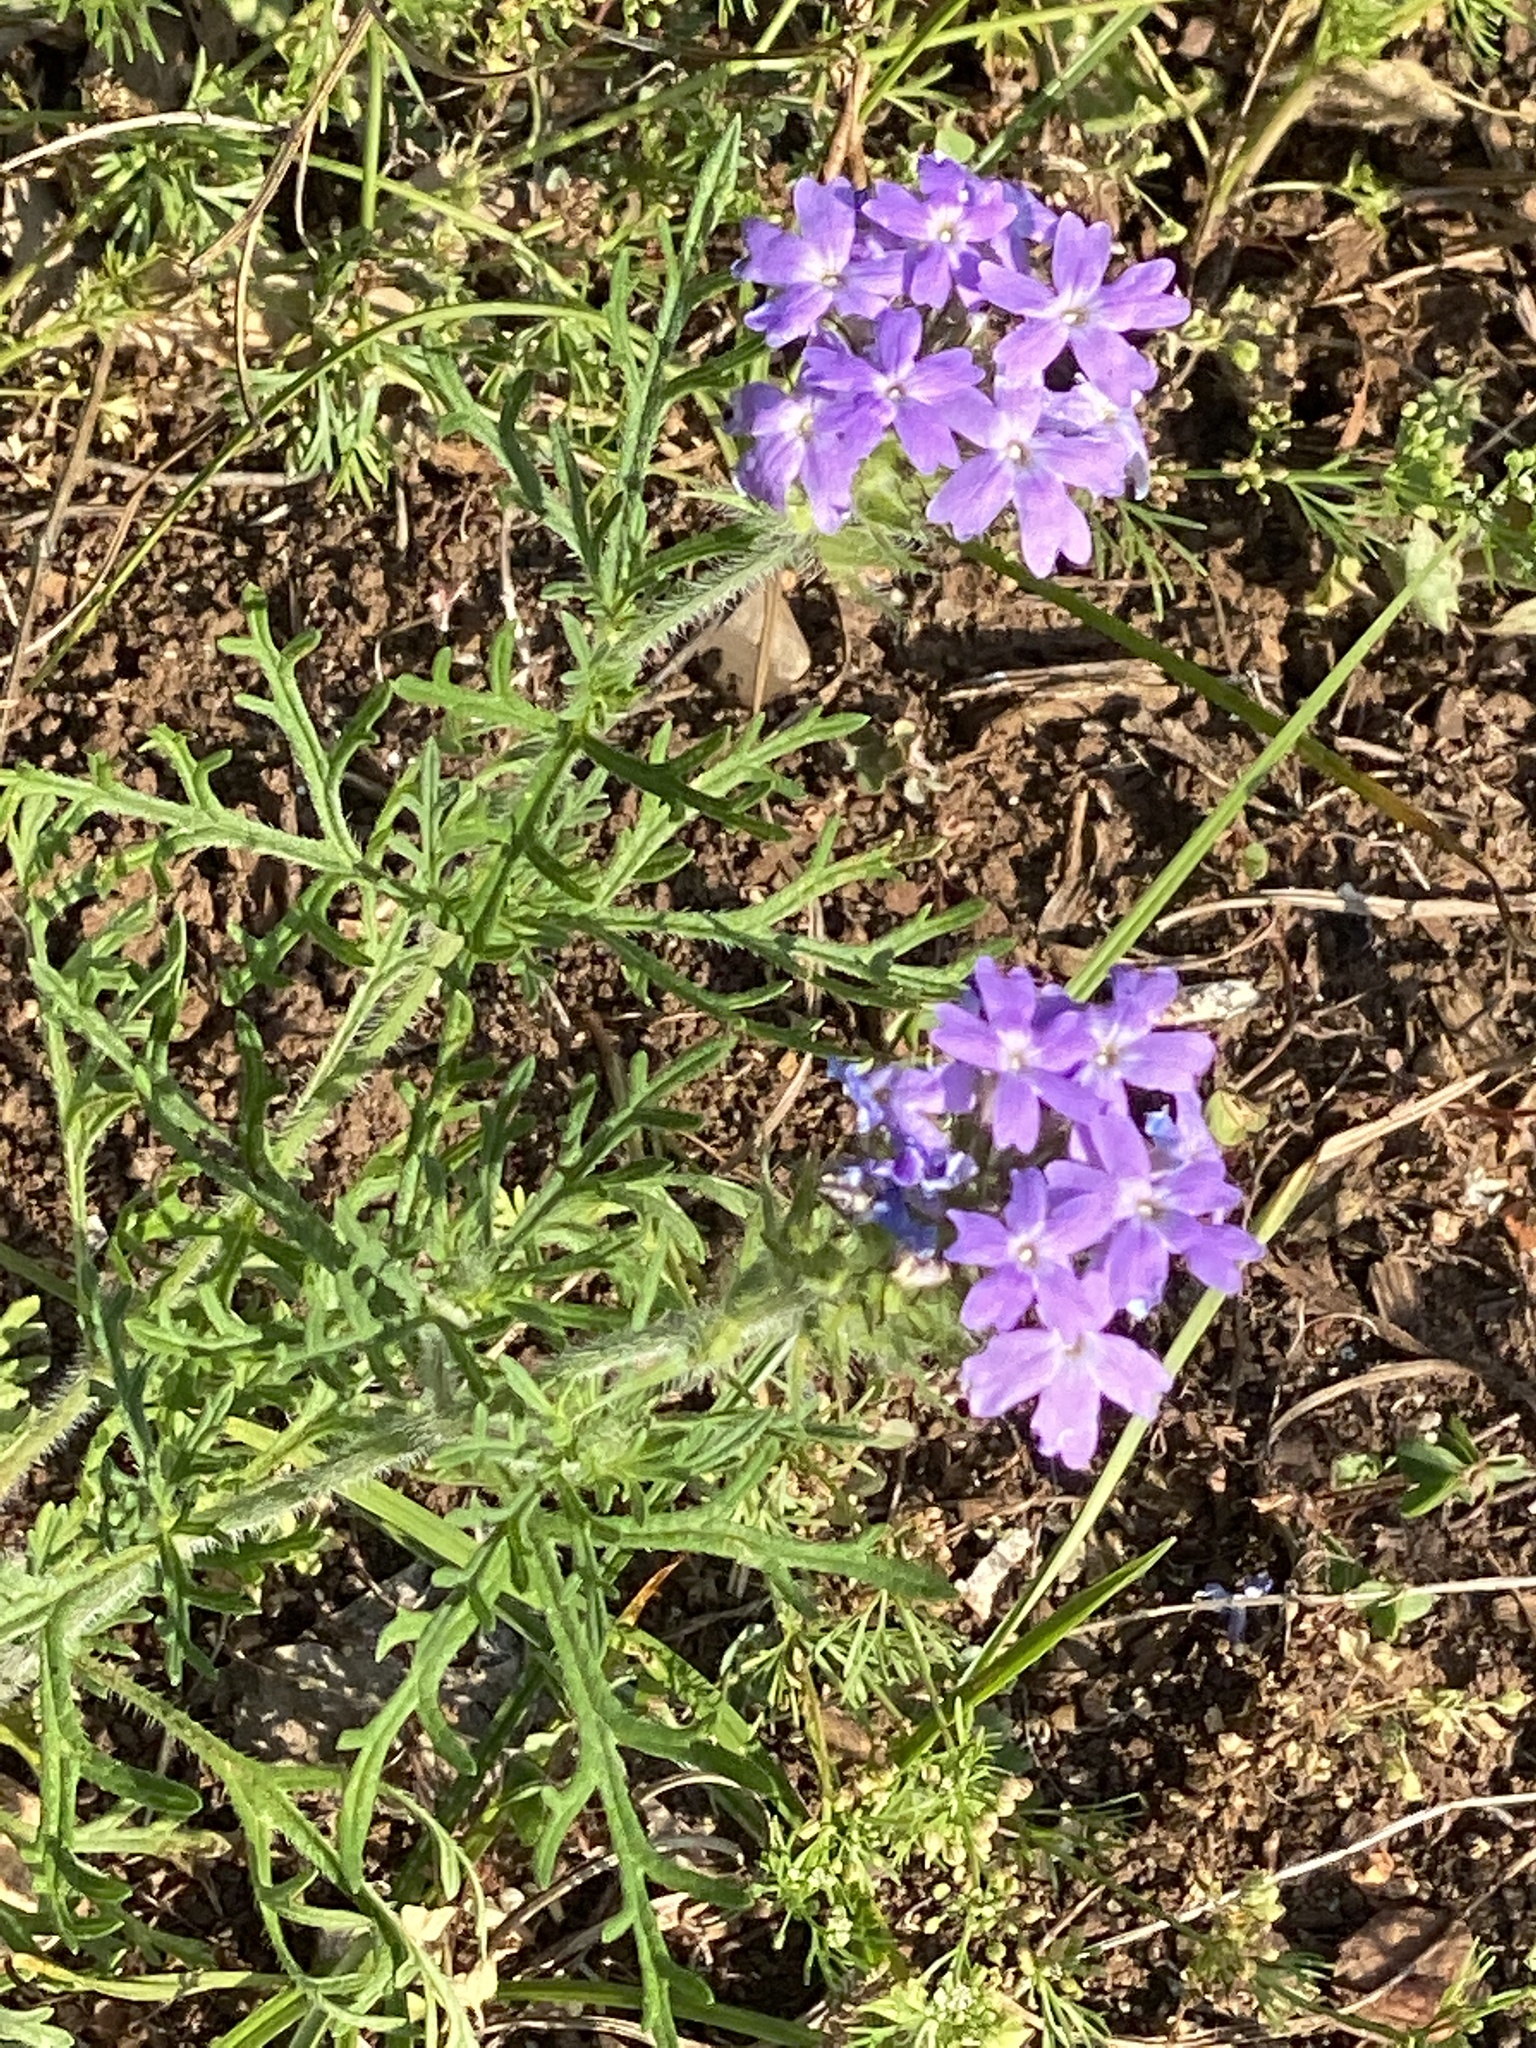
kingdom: Plantae
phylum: Tracheophyta
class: Magnoliopsida
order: Lamiales
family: Verbenaceae
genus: Verbena
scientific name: Verbena bipinnatifida
